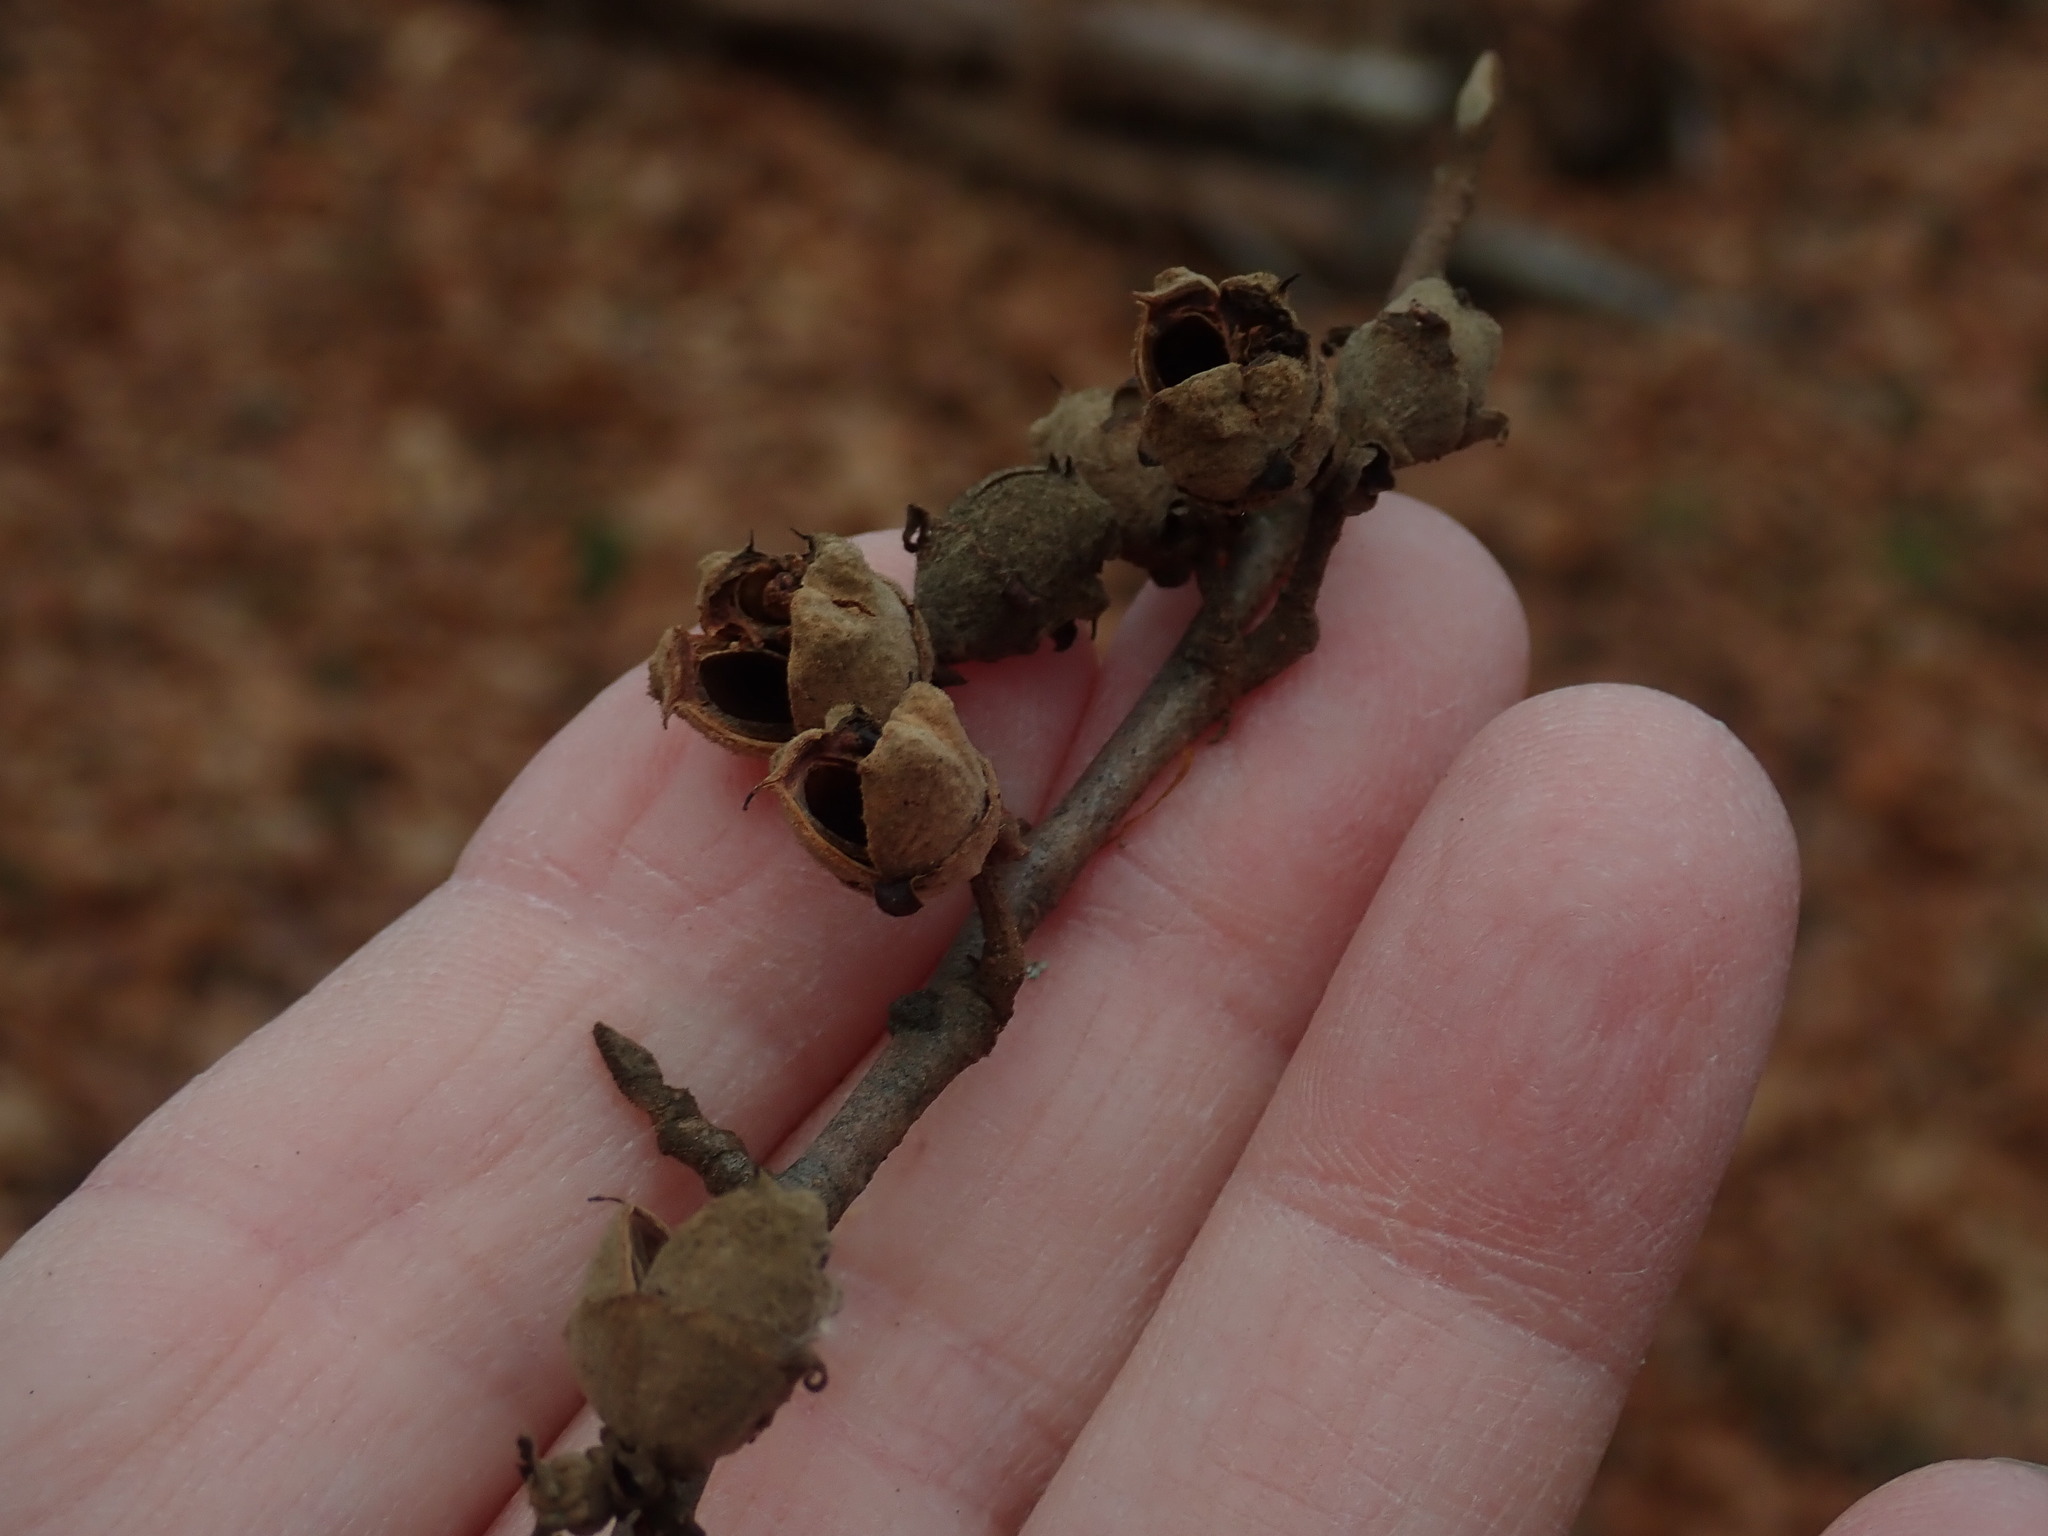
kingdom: Plantae
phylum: Tracheophyta
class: Magnoliopsida
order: Saxifragales
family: Hamamelidaceae
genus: Hamamelis
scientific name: Hamamelis virginiana
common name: Witch-hazel
